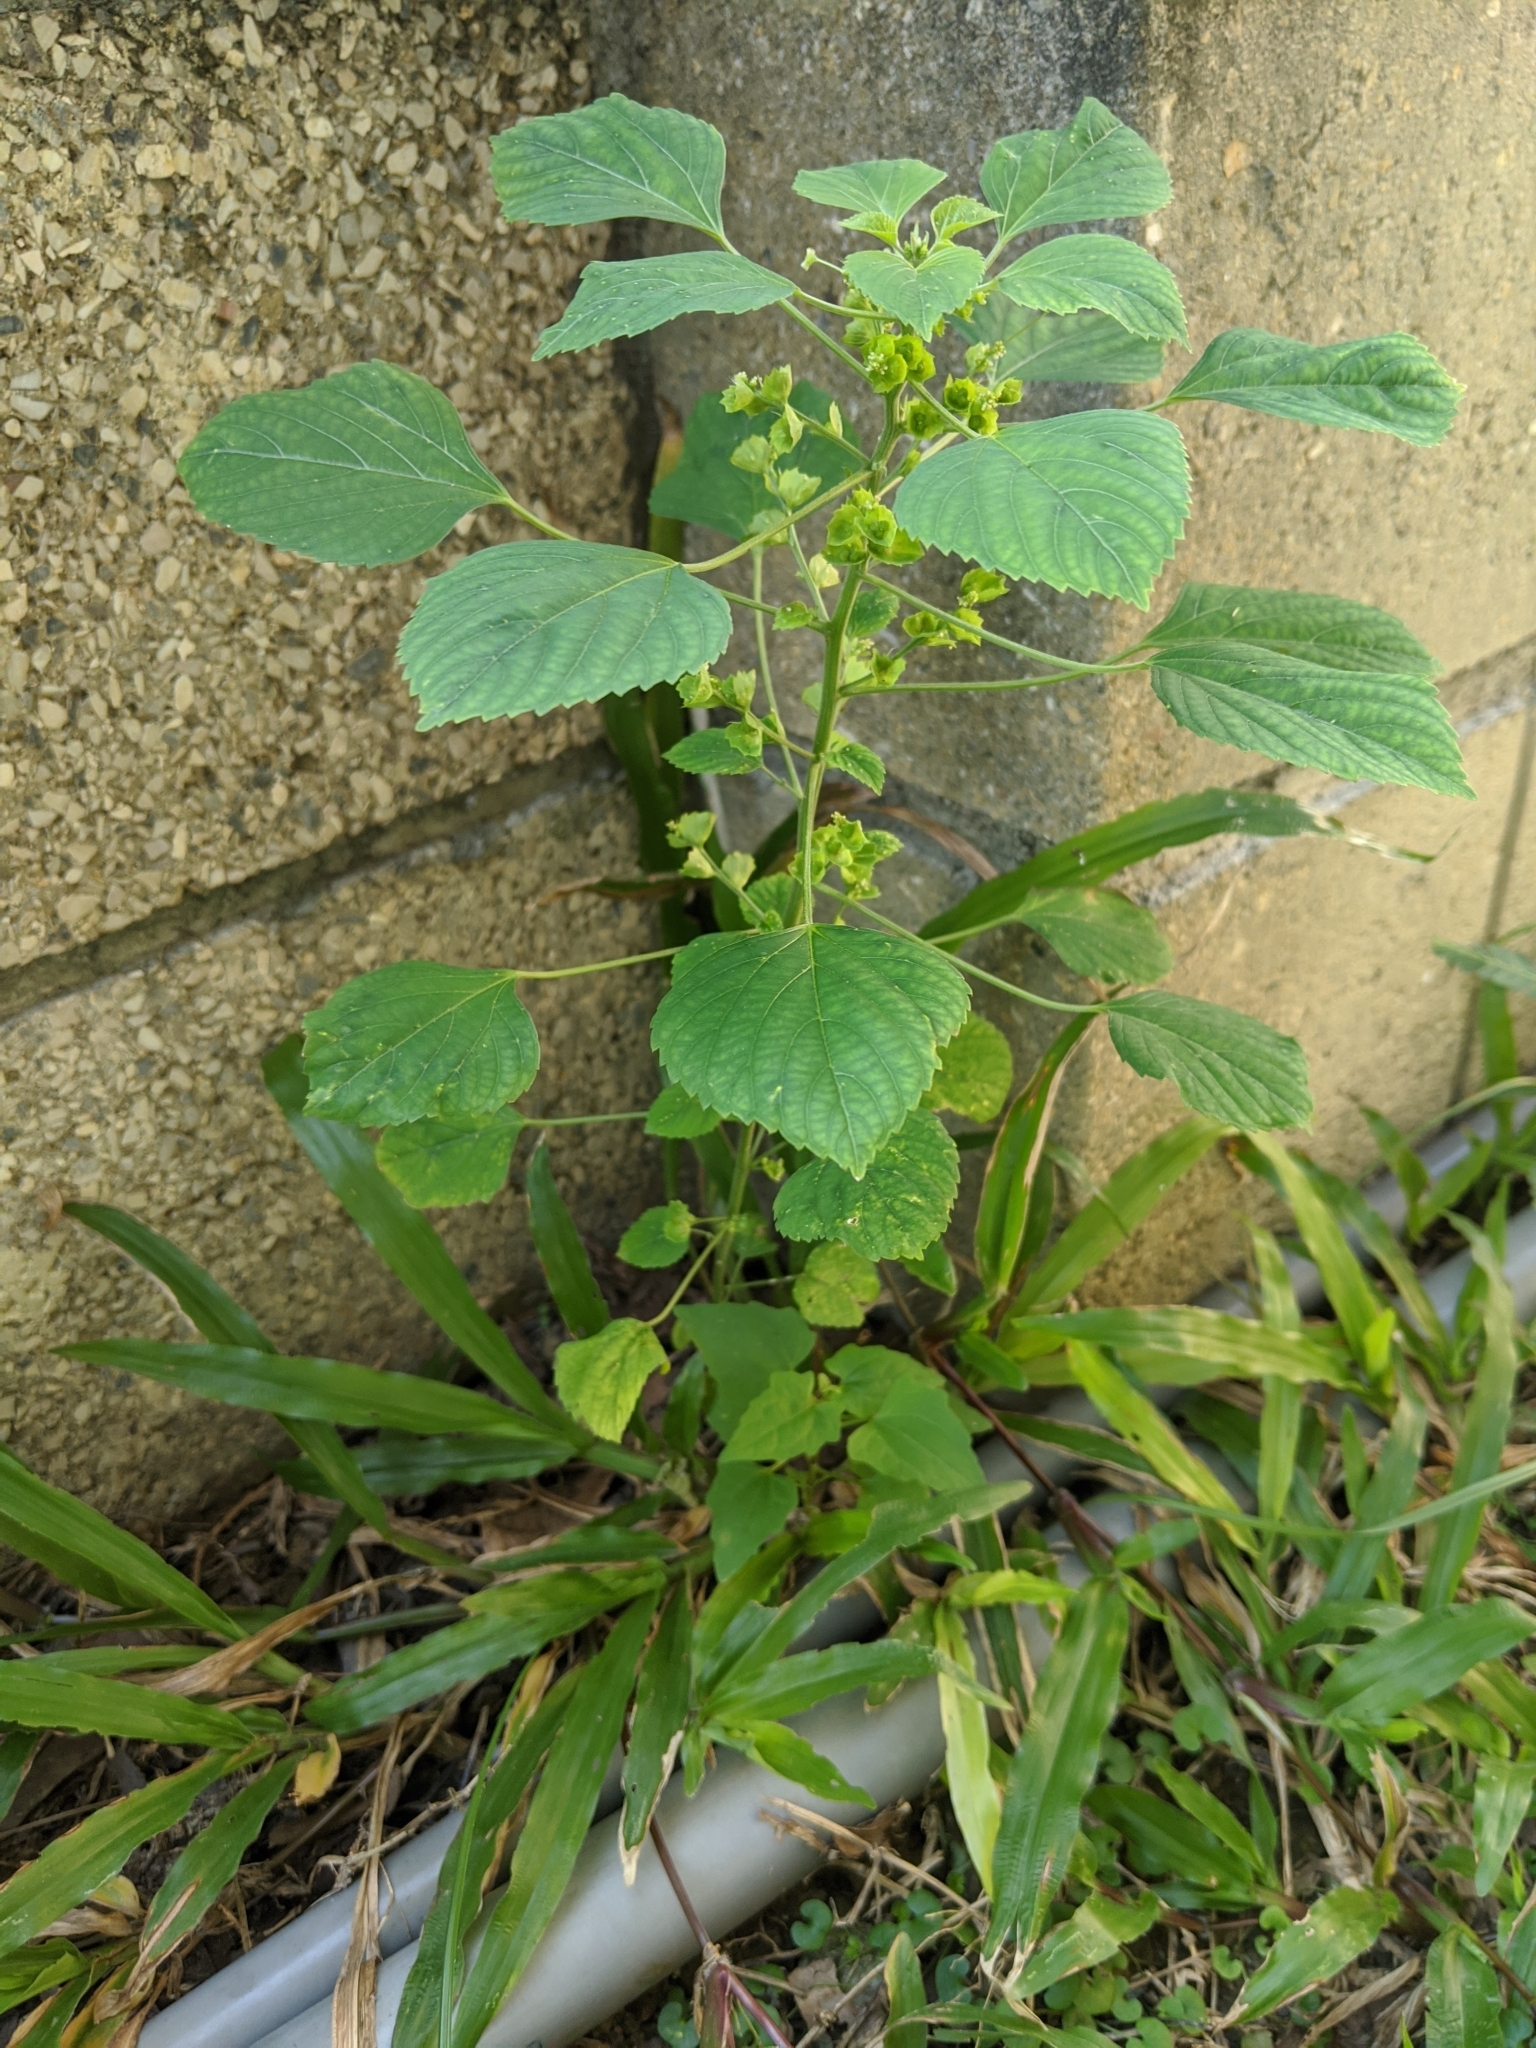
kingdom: Plantae
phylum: Tracheophyta
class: Magnoliopsida
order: Malpighiales
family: Euphorbiaceae
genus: Acalypha
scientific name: Acalypha indica
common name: Indian acalypha
